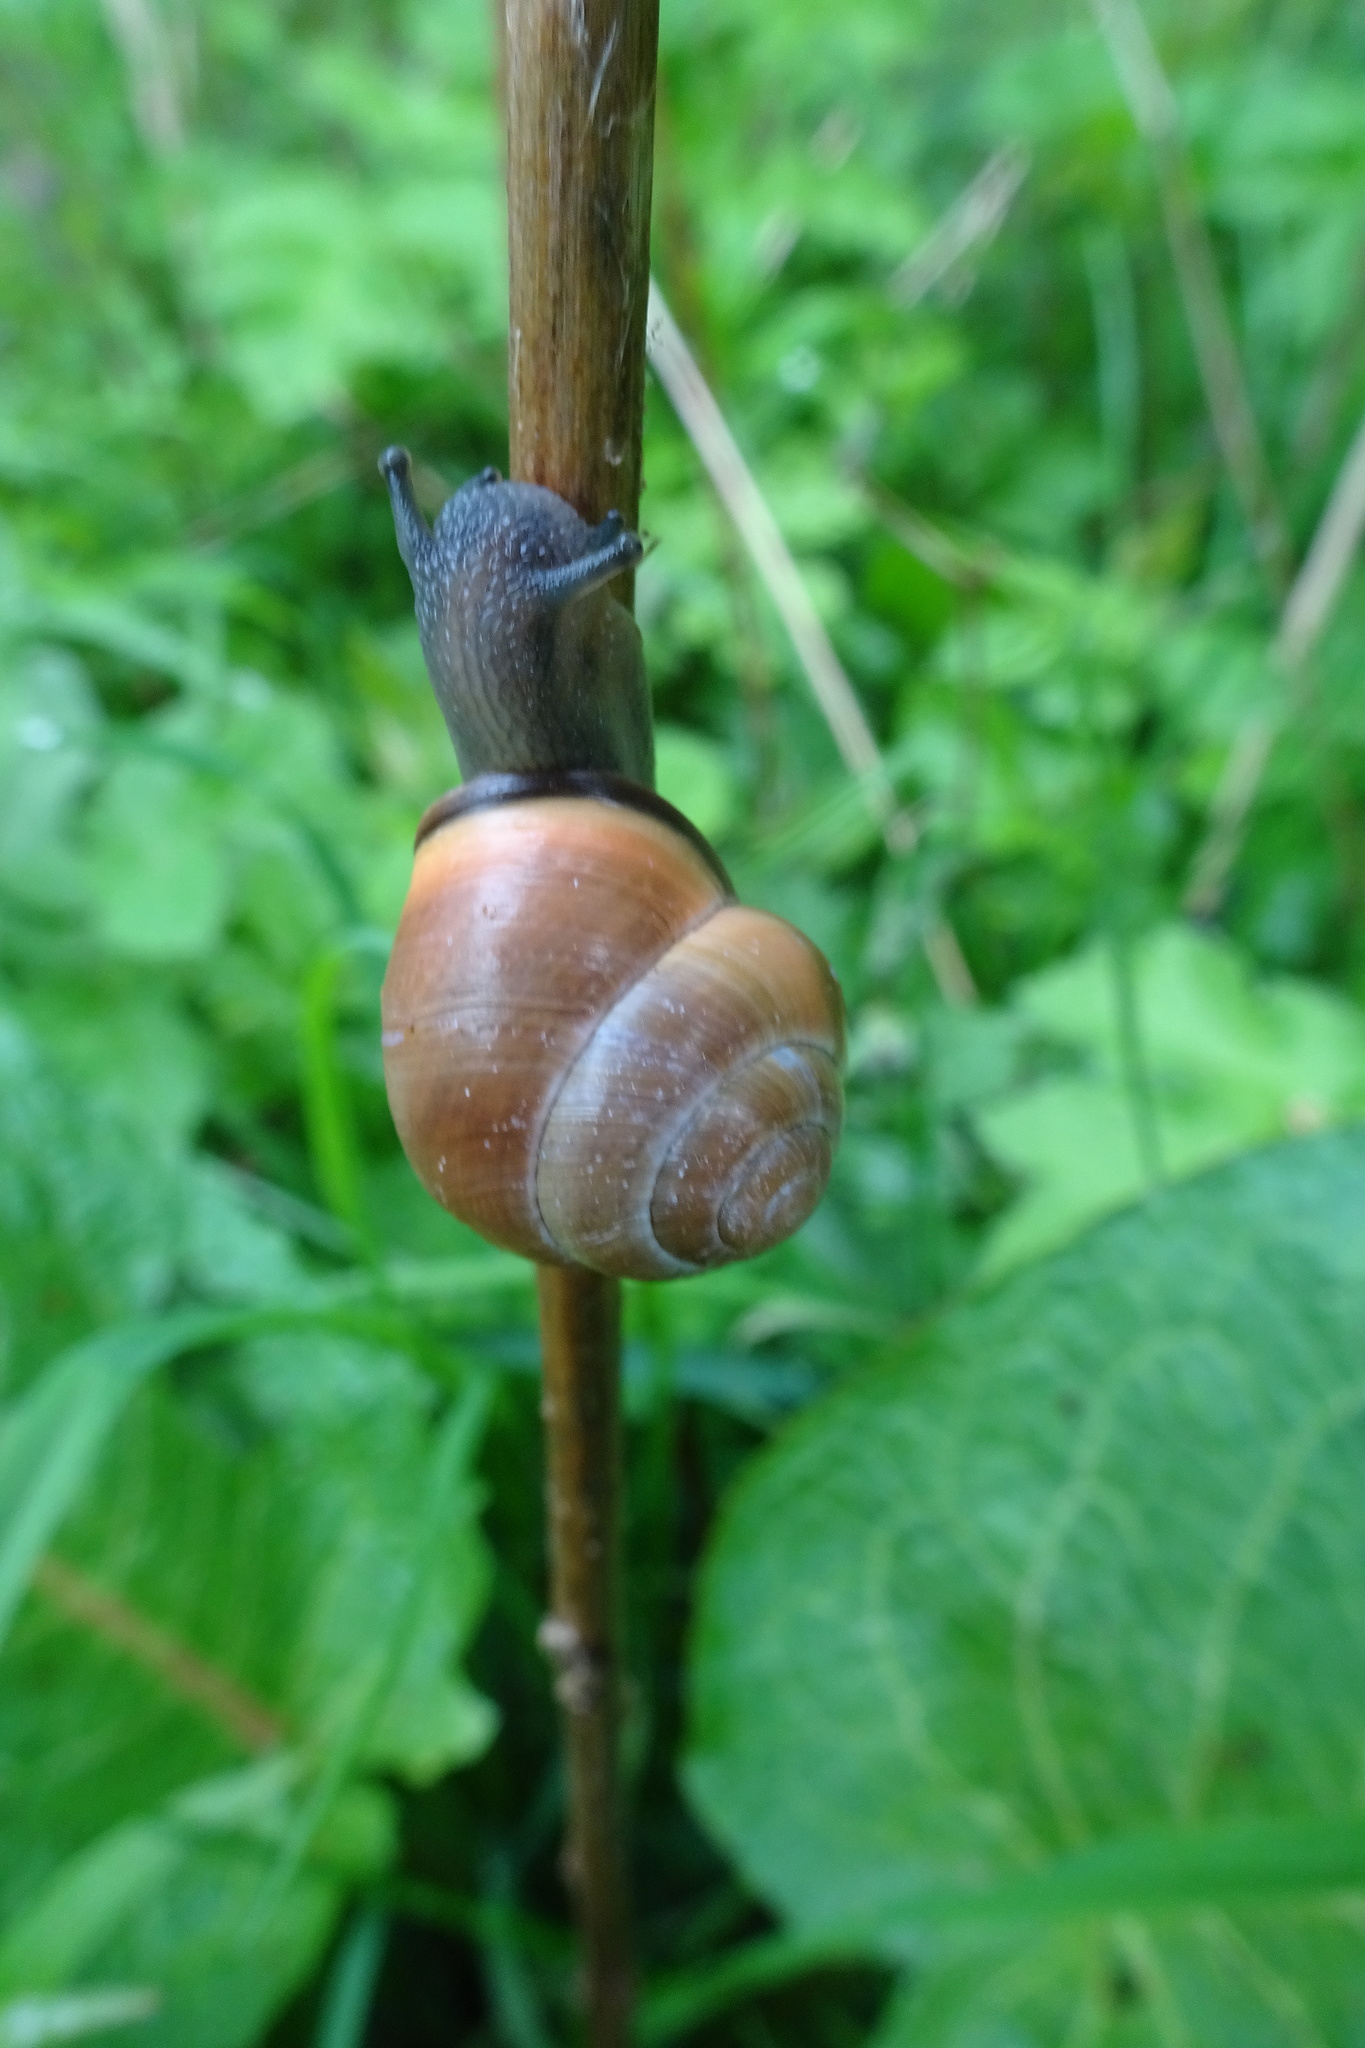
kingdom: Animalia
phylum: Mollusca
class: Gastropoda
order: Stylommatophora
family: Helicidae
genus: Cepaea
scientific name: Cepaea nemoralis
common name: Grovesnail
